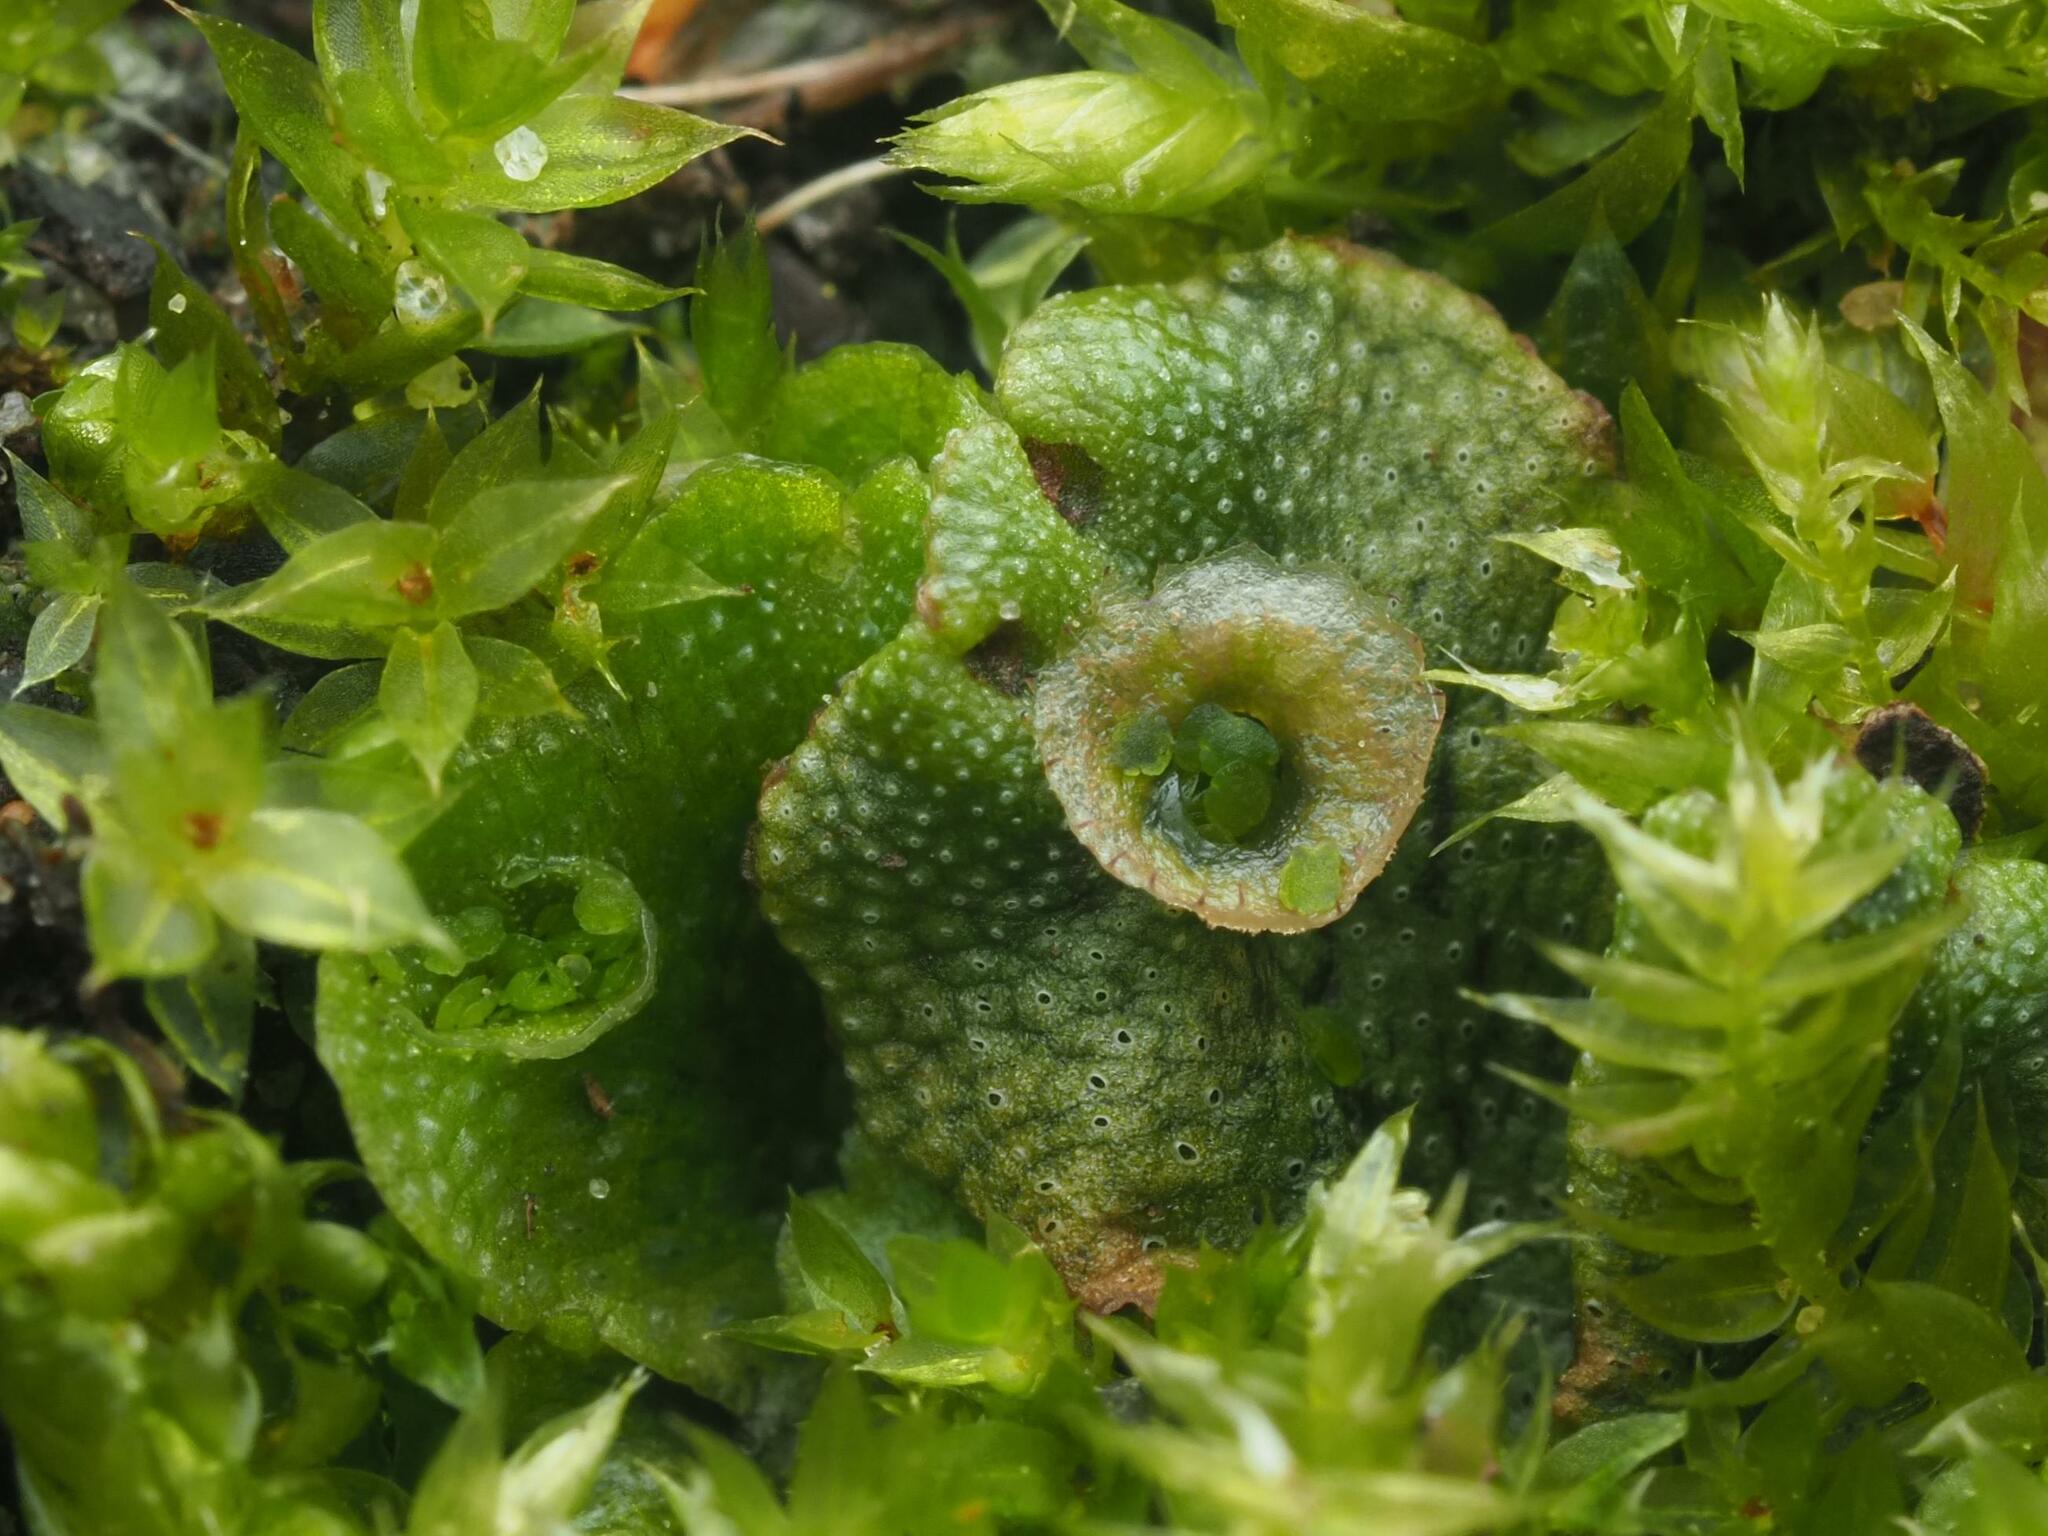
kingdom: Plantae
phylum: Marchantiophyta
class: Marchantiopsida
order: Marchantiales
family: Marchantiaceae
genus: Marchantia
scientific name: Marchantia polymorpha
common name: Common liverwort
